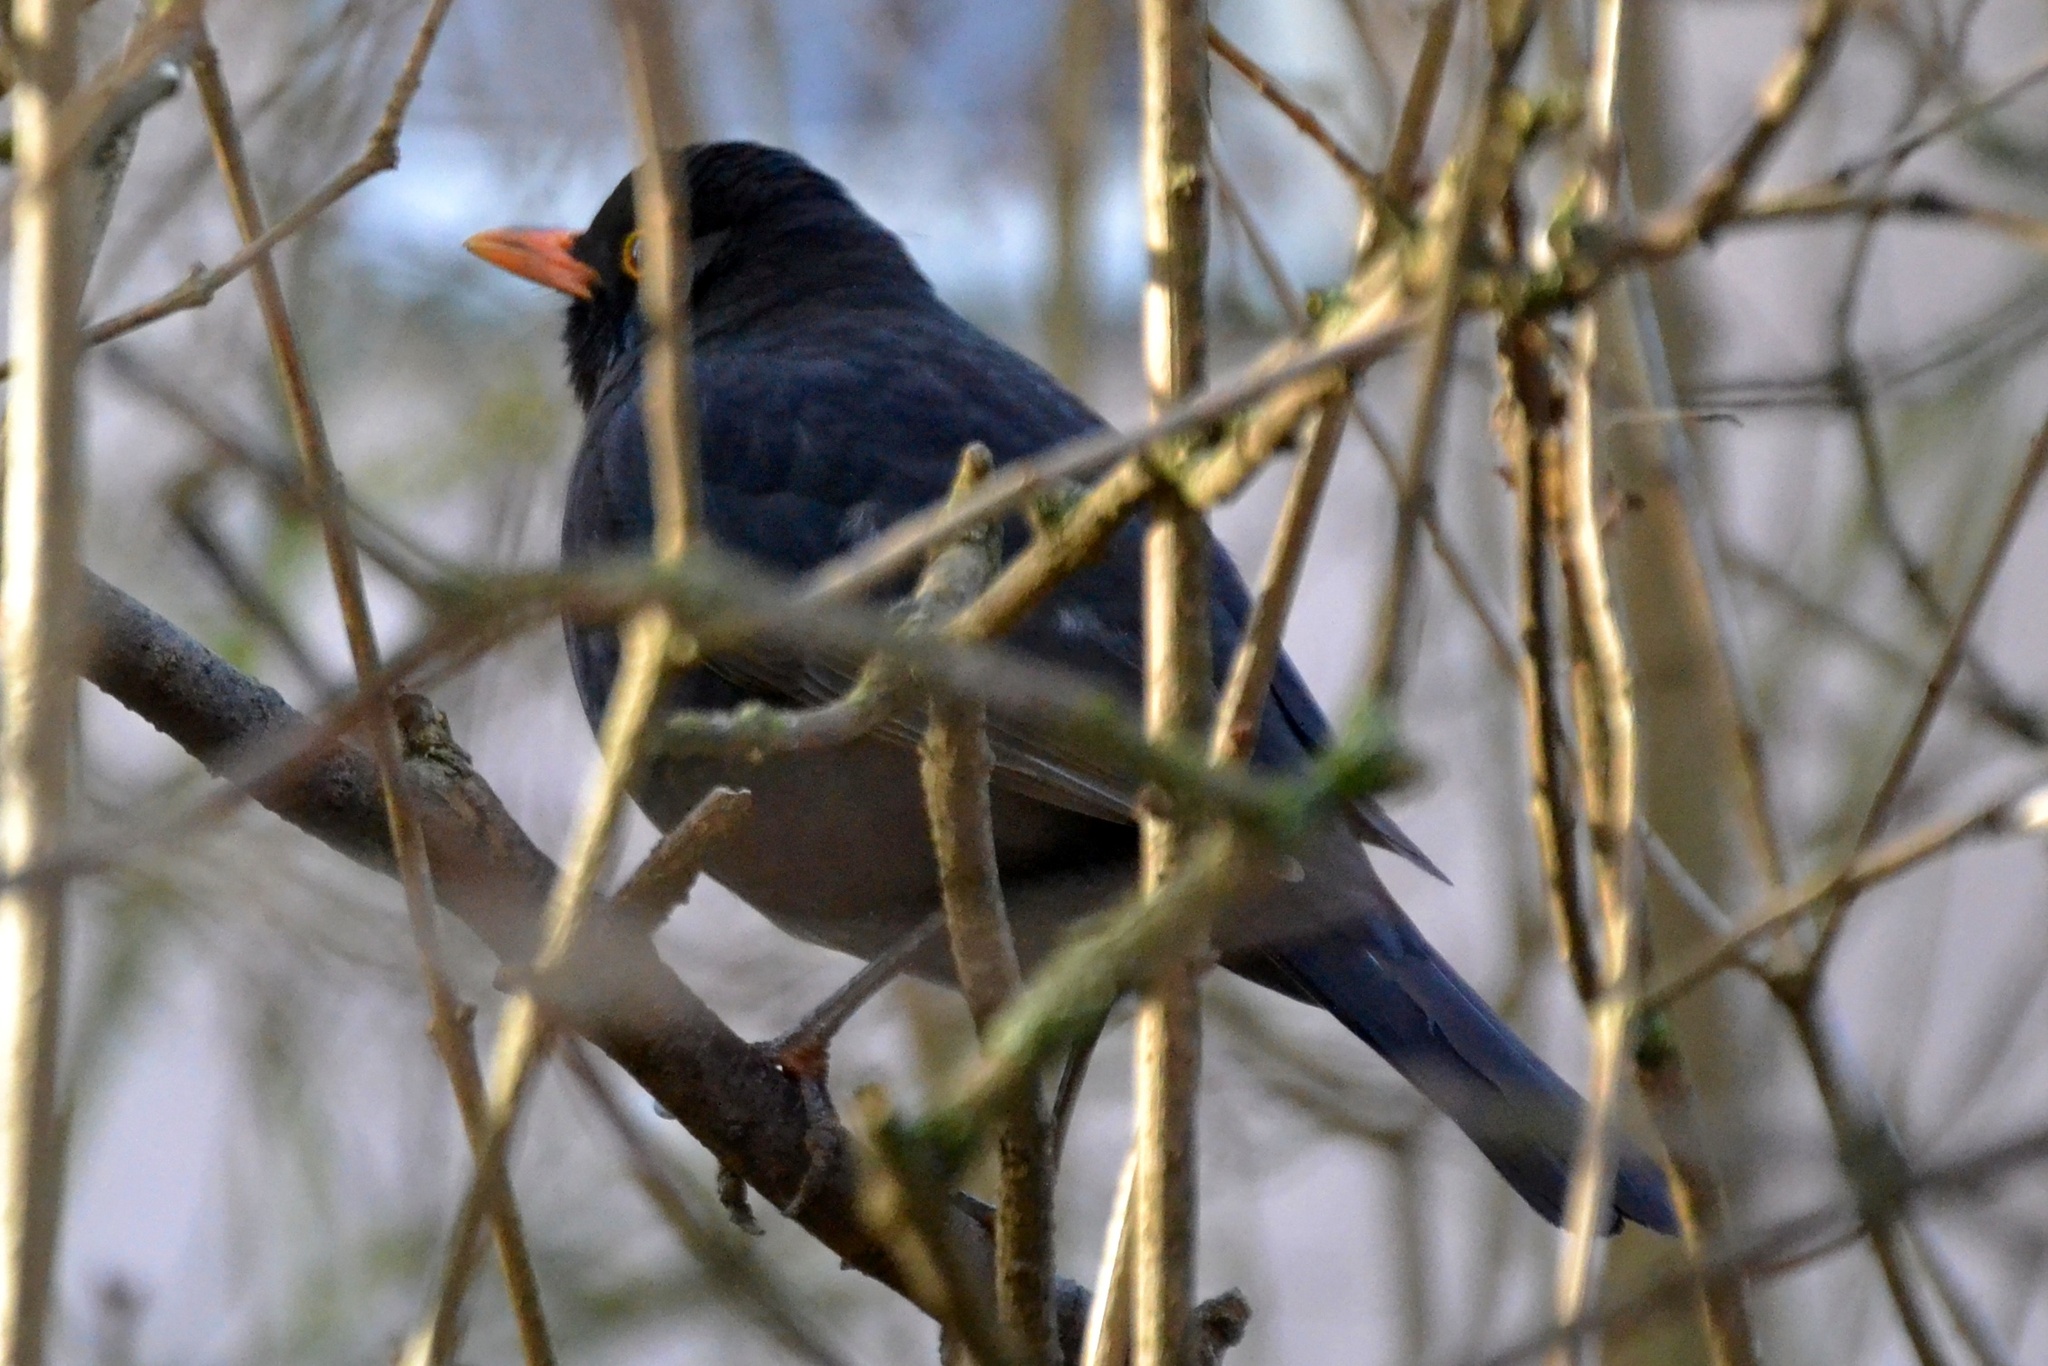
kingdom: Animalia
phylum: Chordata
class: Aves
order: Passeriformes
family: Turdidae
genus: Turdus
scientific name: Turdus merula
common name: Common blackbird
